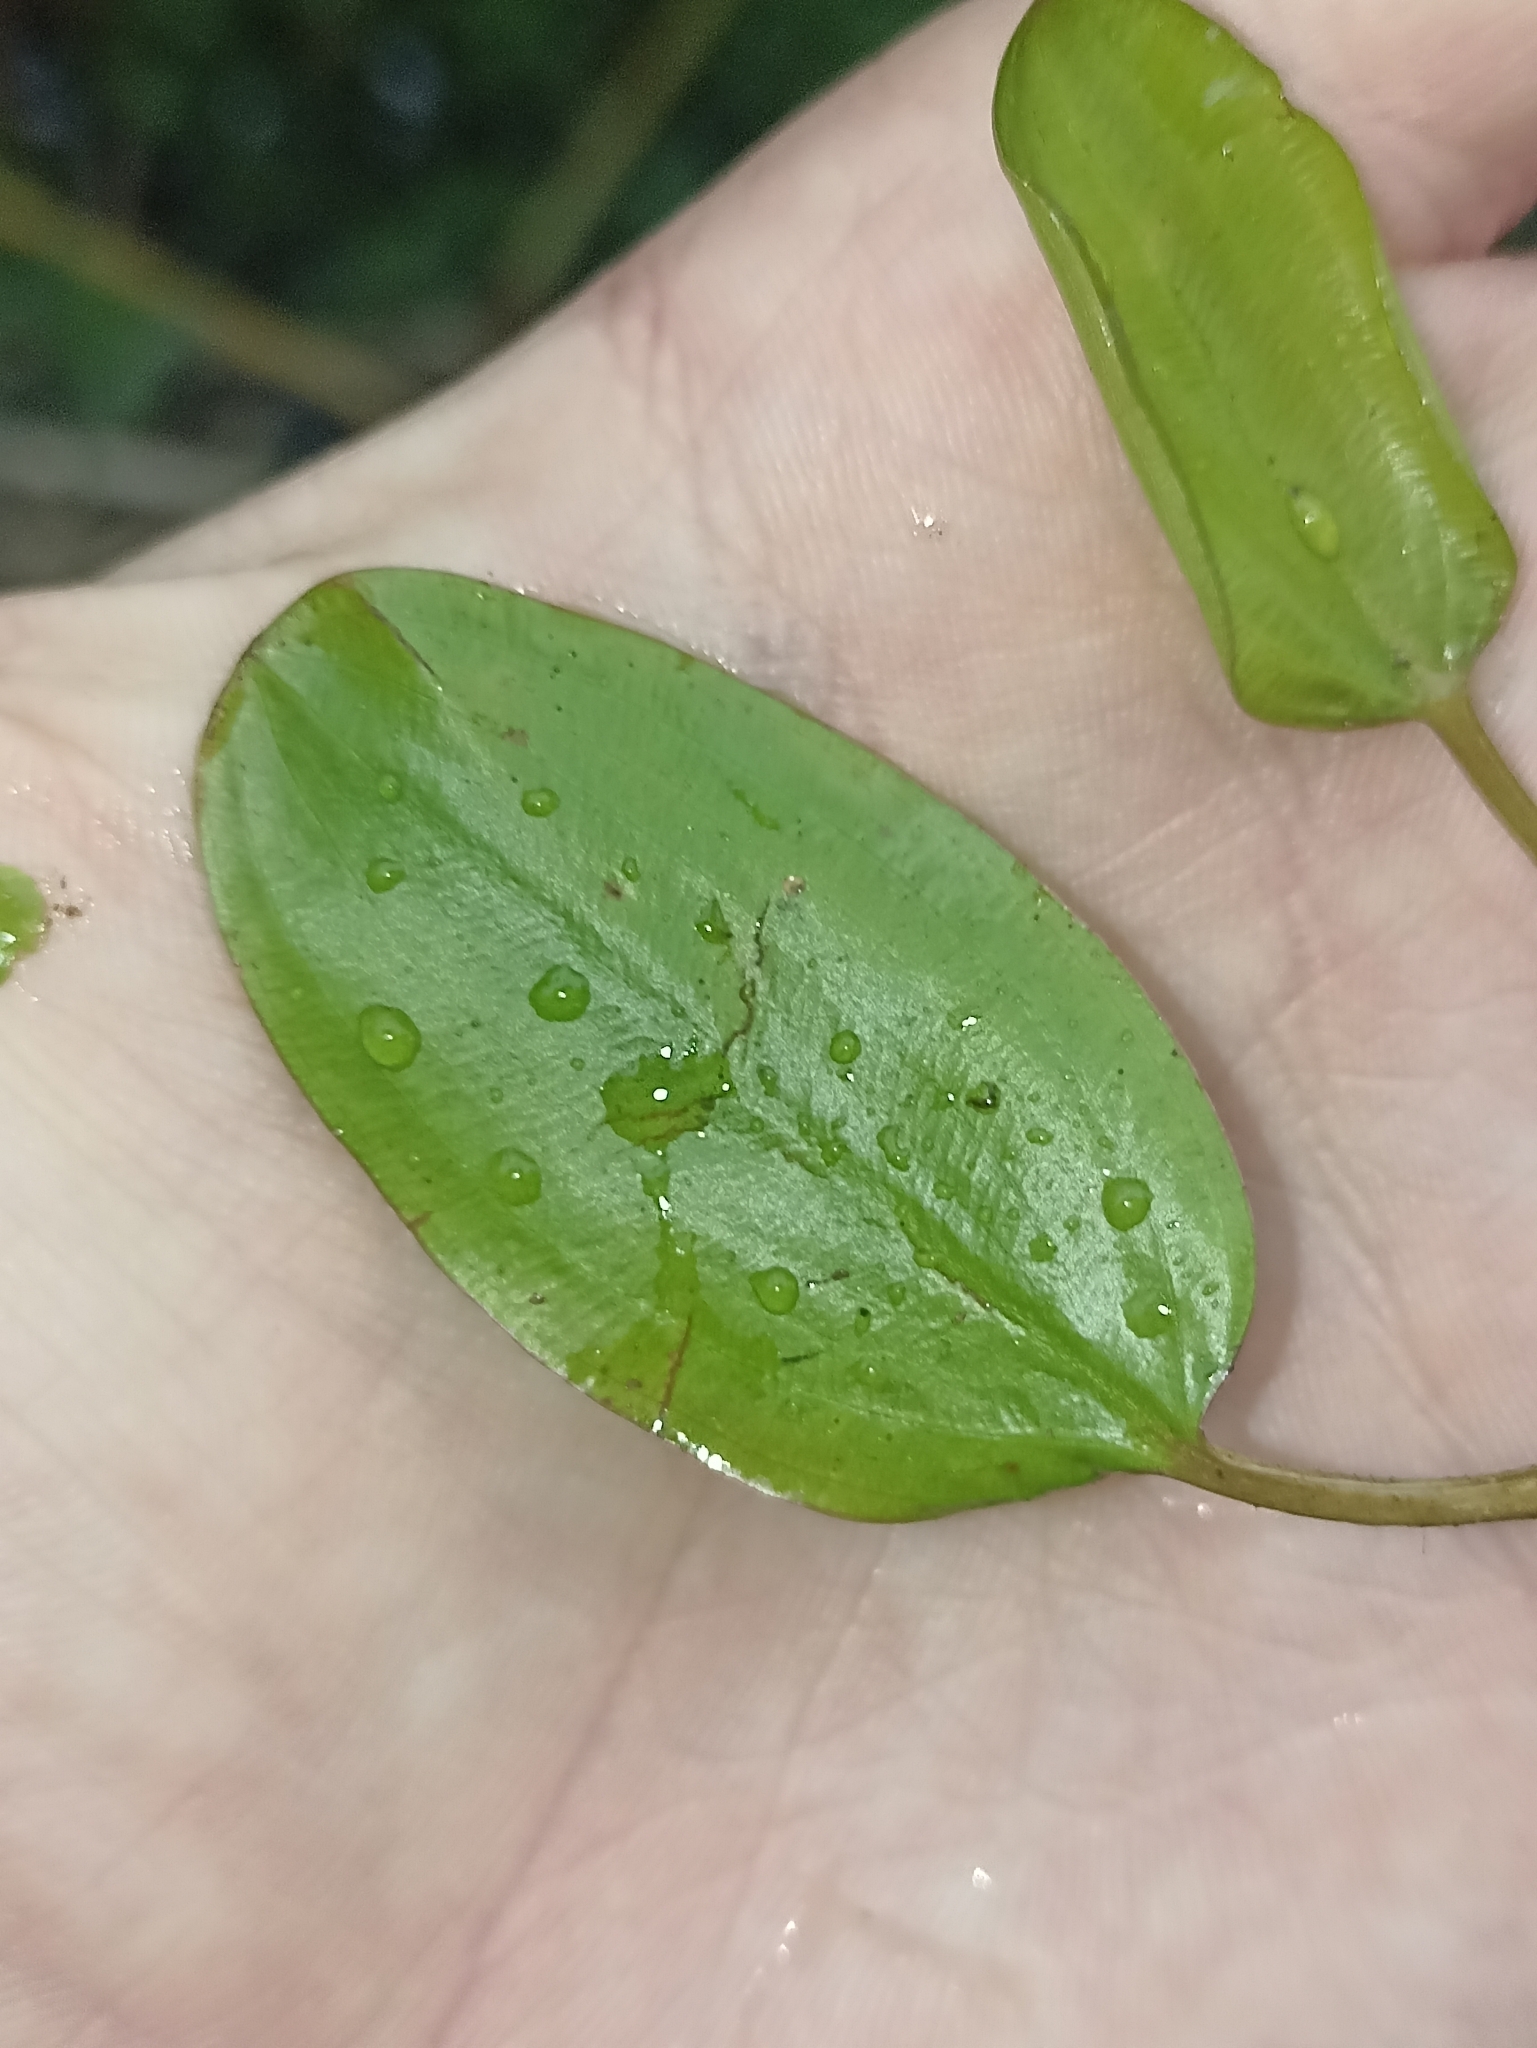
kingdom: Plantae
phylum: Tracheophyta
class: Liliopsida
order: Alismatales
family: Potamogetonaceae
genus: Potamogeton
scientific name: Potamogeton cheesemanii
